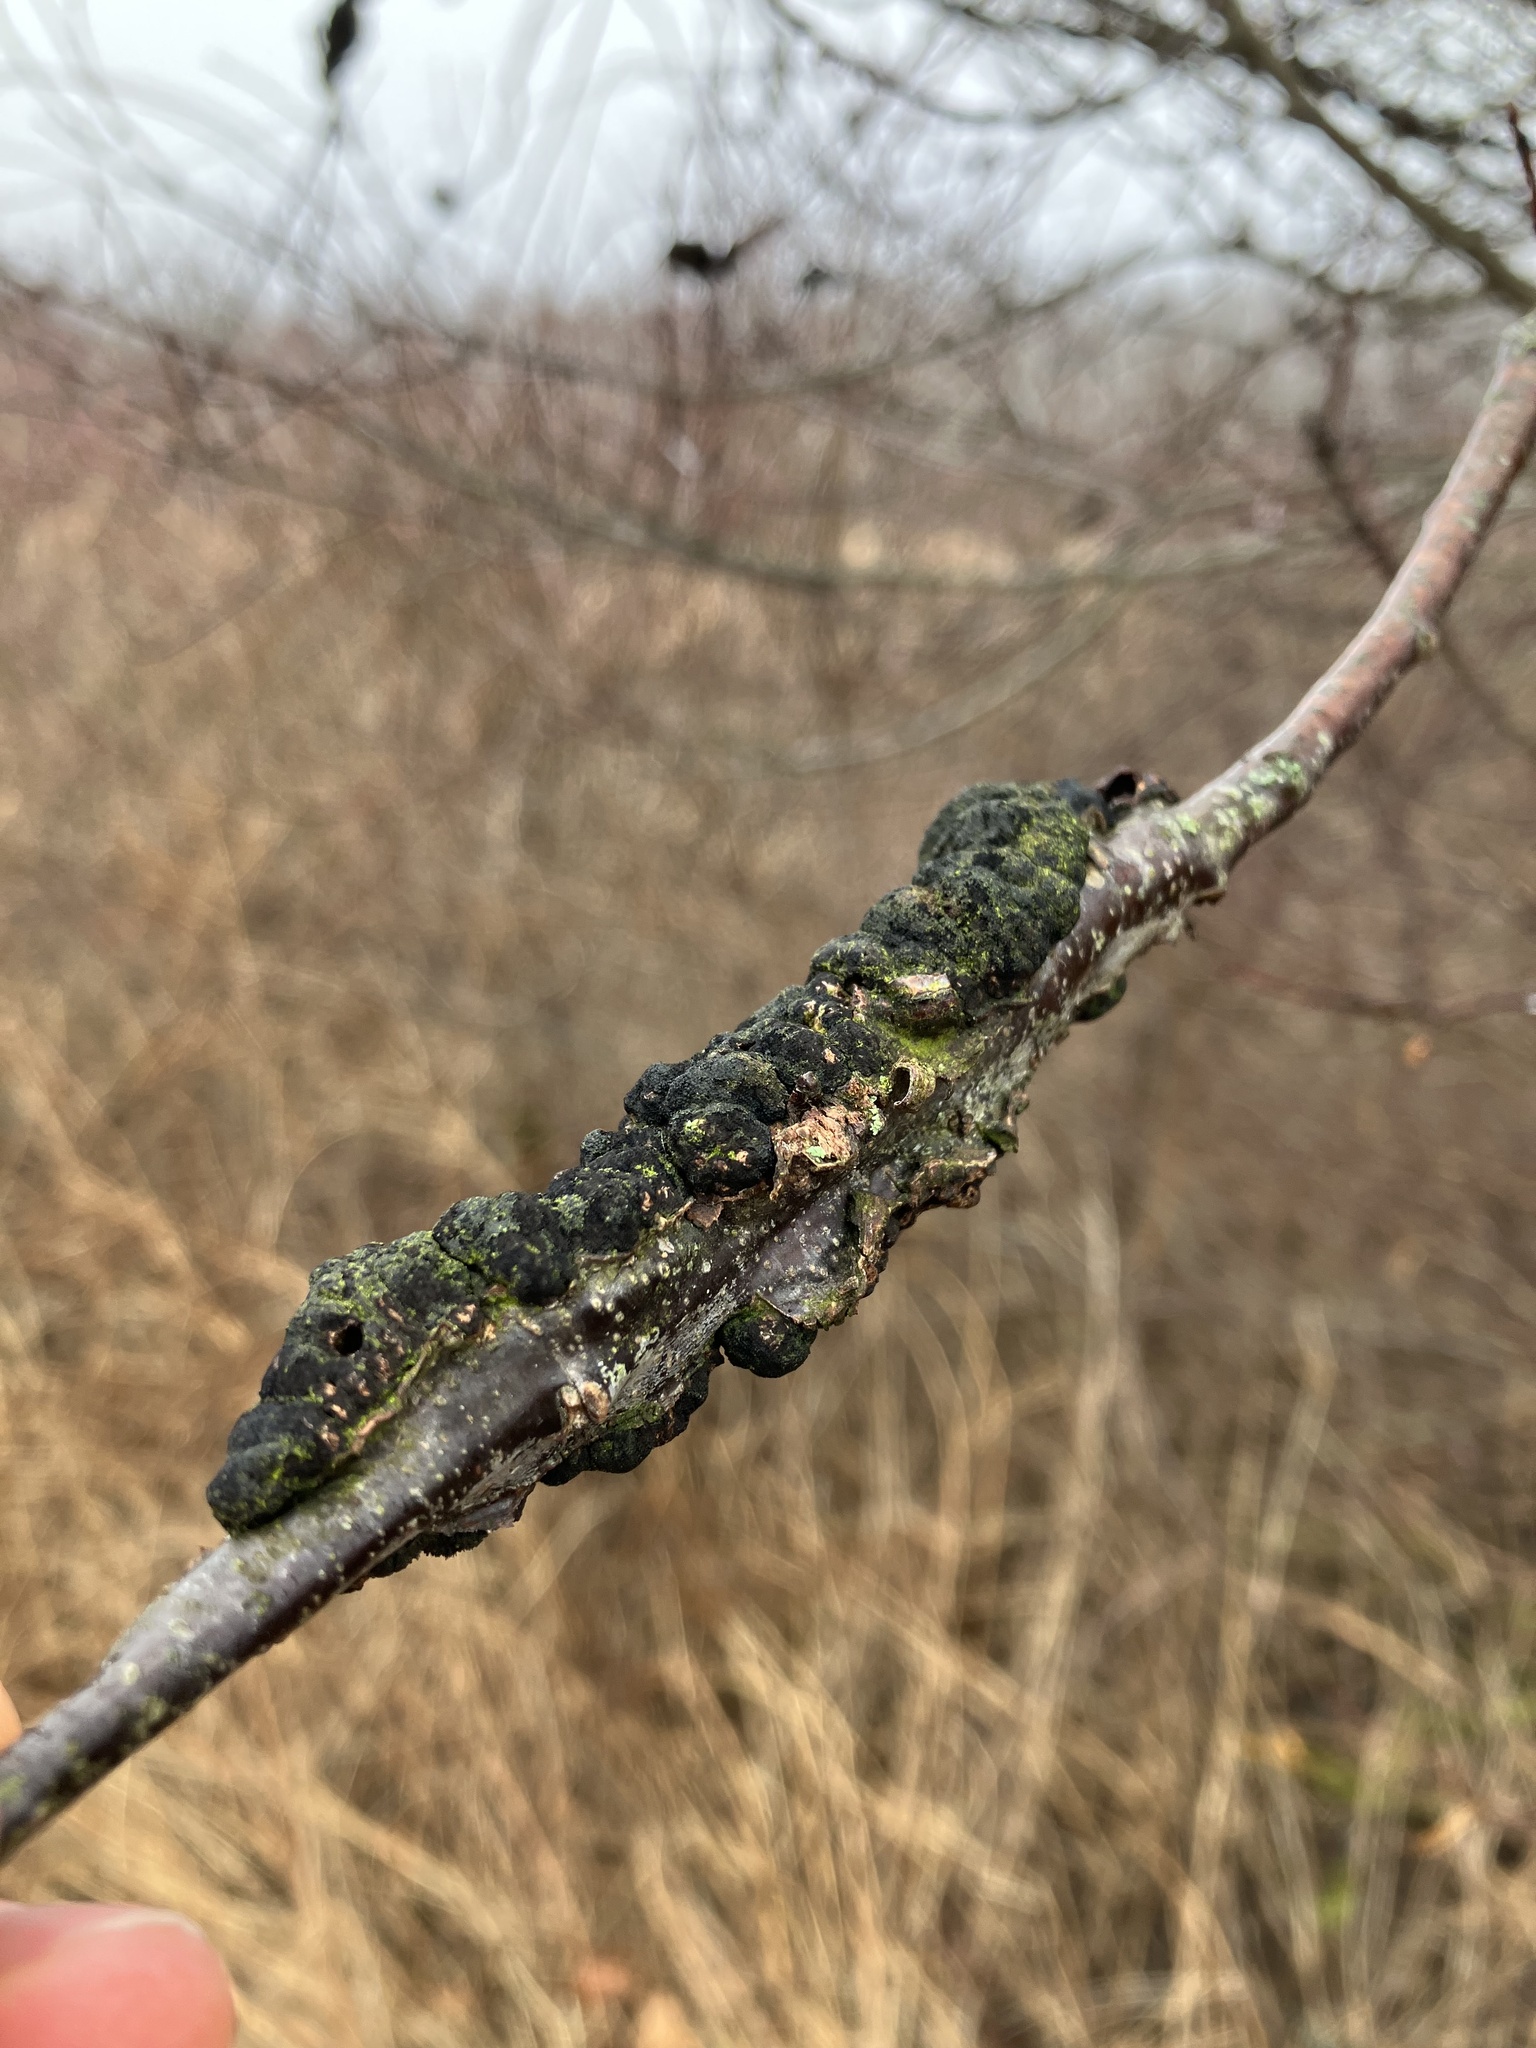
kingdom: Fungi
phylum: Ascomycota
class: Dothideomycetes
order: Venturiales
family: Venturiaceae
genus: Apiosporina
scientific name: Apiosporina morbosa
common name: Black knot
